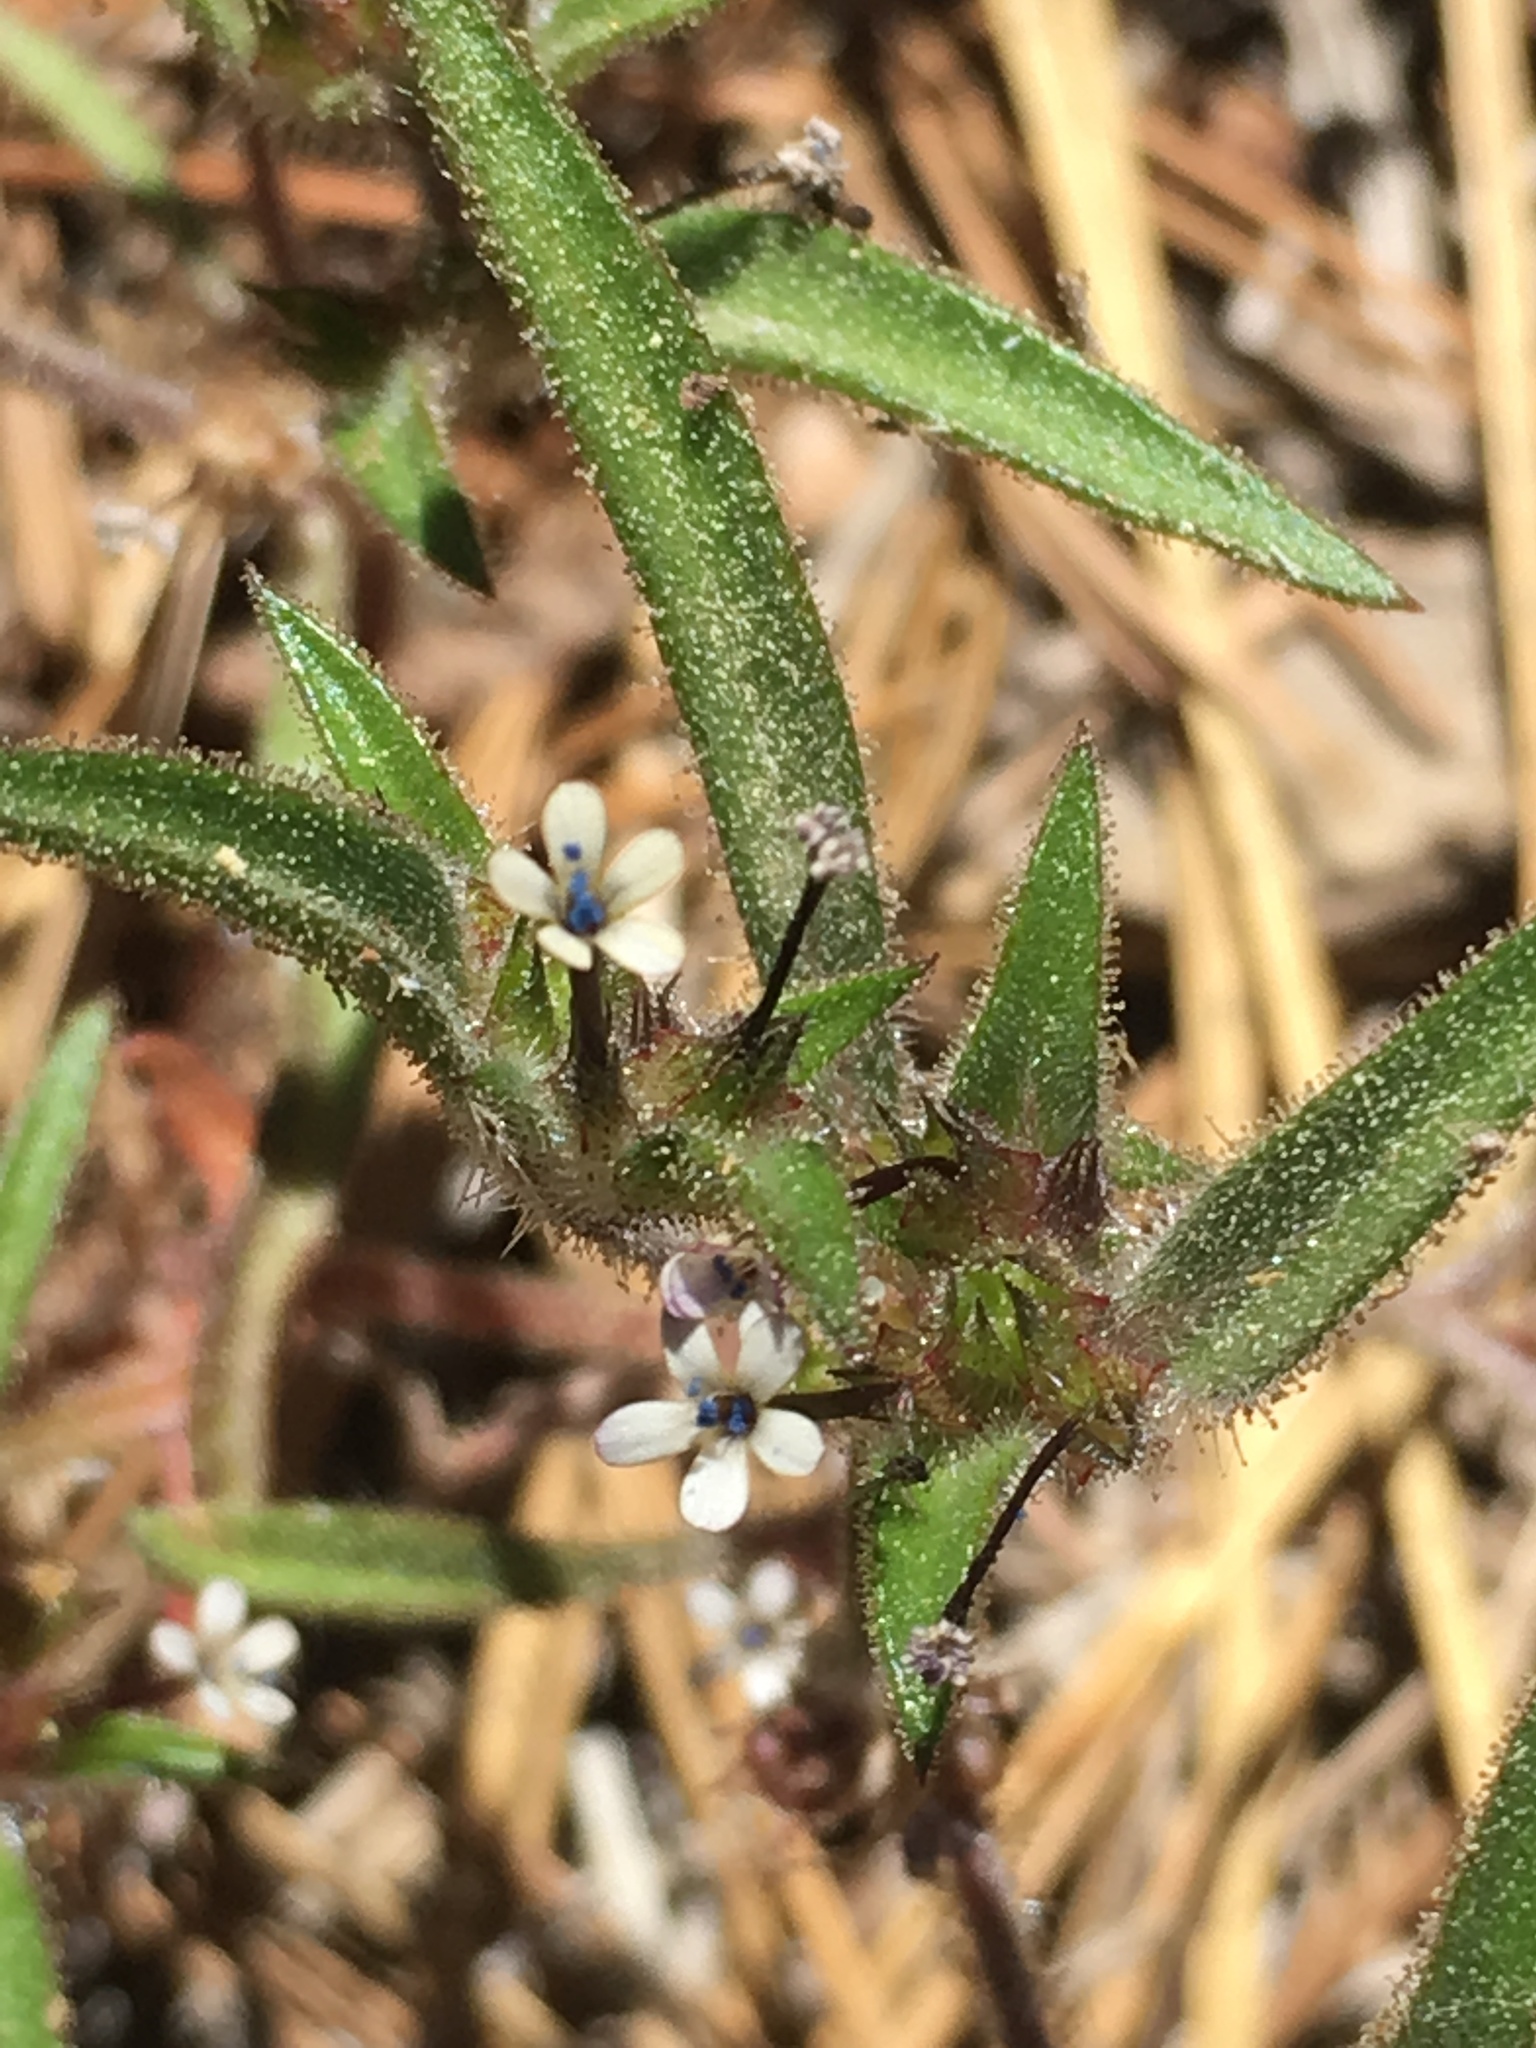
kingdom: Plantae
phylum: Tracheophyta
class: Magnoliopsida
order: Ericales
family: Polemoniaceae
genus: Collomia
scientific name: Collomia tinctoria
